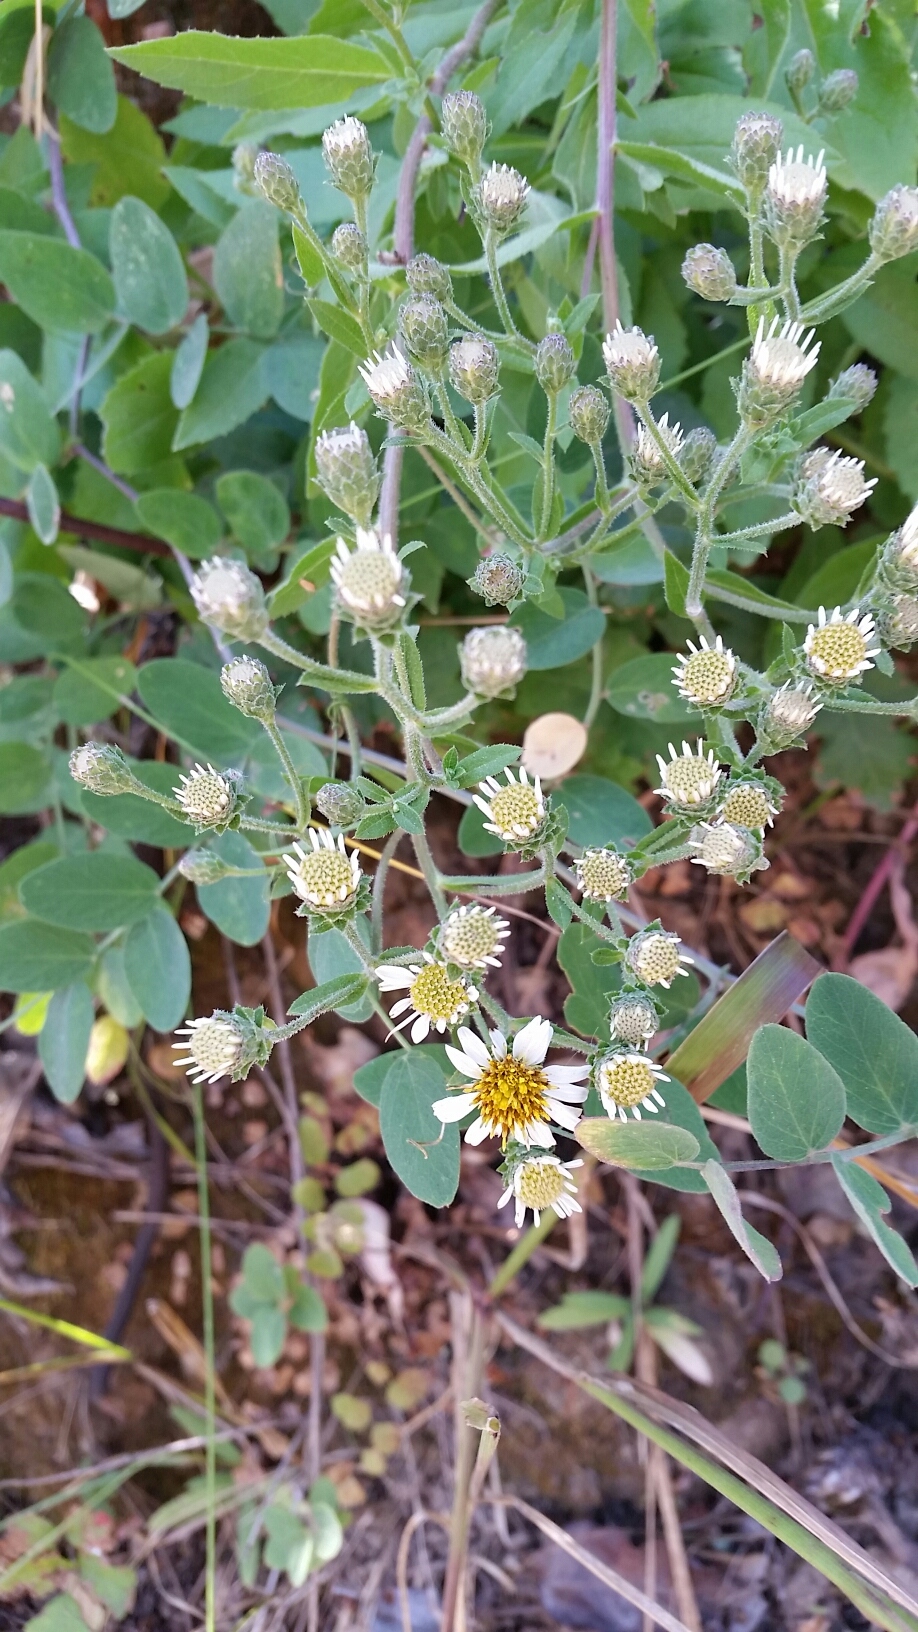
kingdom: Plantae
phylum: Tracheophyta
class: Magnoliopsida
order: Asterales
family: Asteraceae
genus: Eurybia
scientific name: Eurybia radulina
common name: Rough-leaved aster
